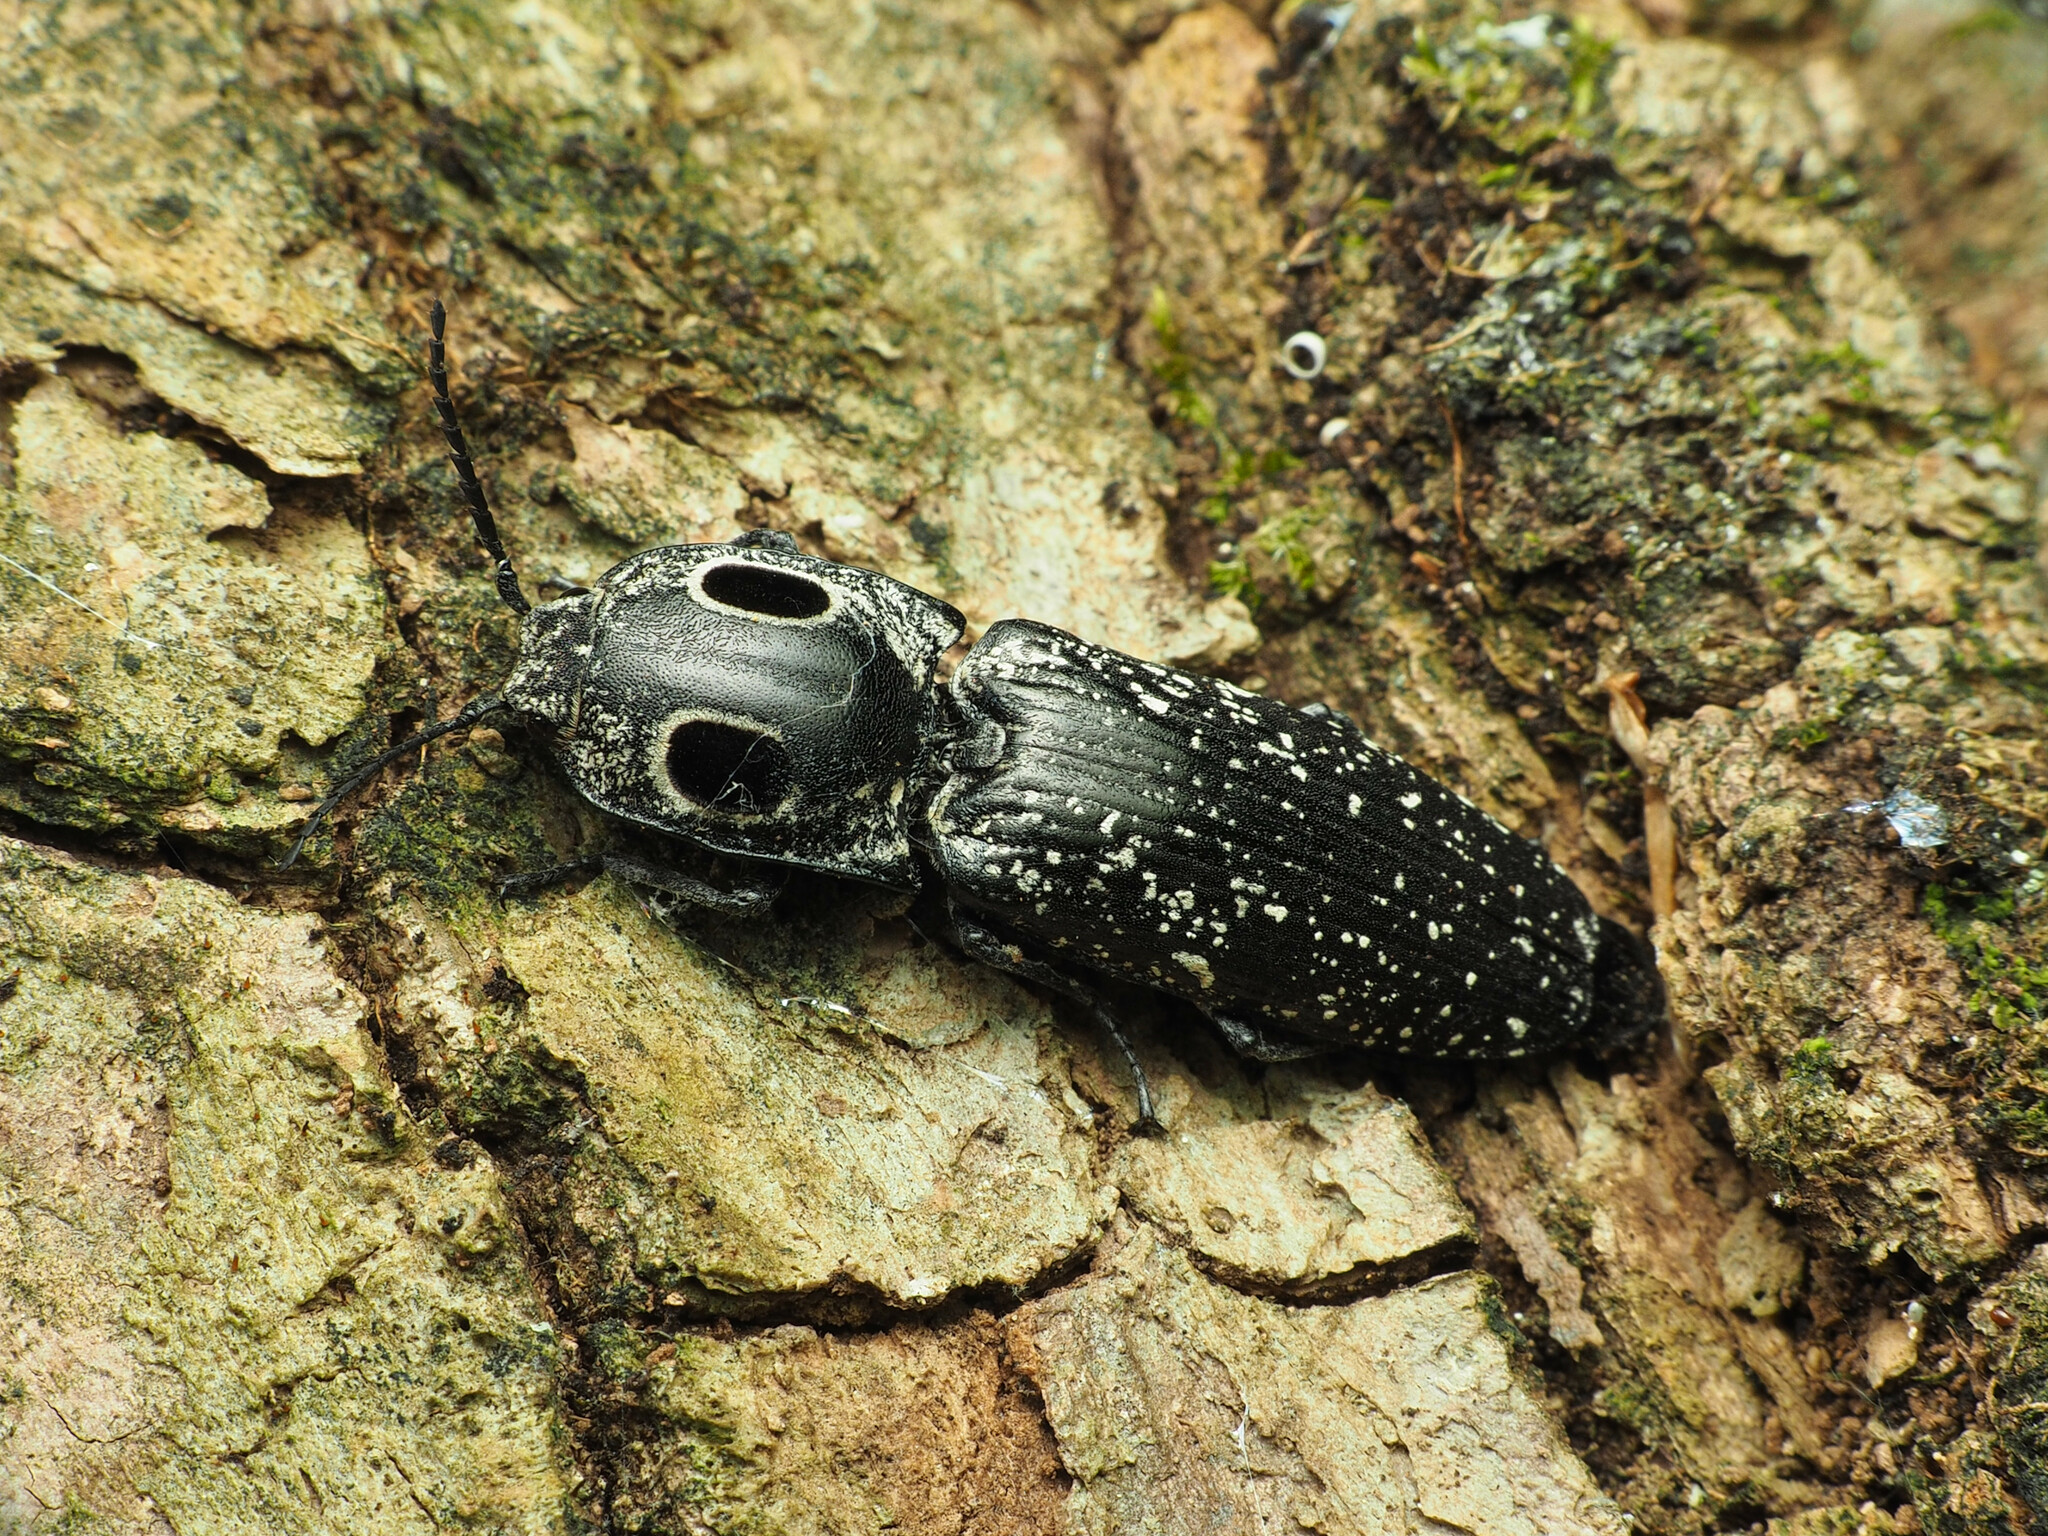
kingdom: Animalia
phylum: Arthropoda
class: Insecta
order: Coleoptera
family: Elateridae
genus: Alaus
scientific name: Alaus oculatus
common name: Eastern eyed click beetle
